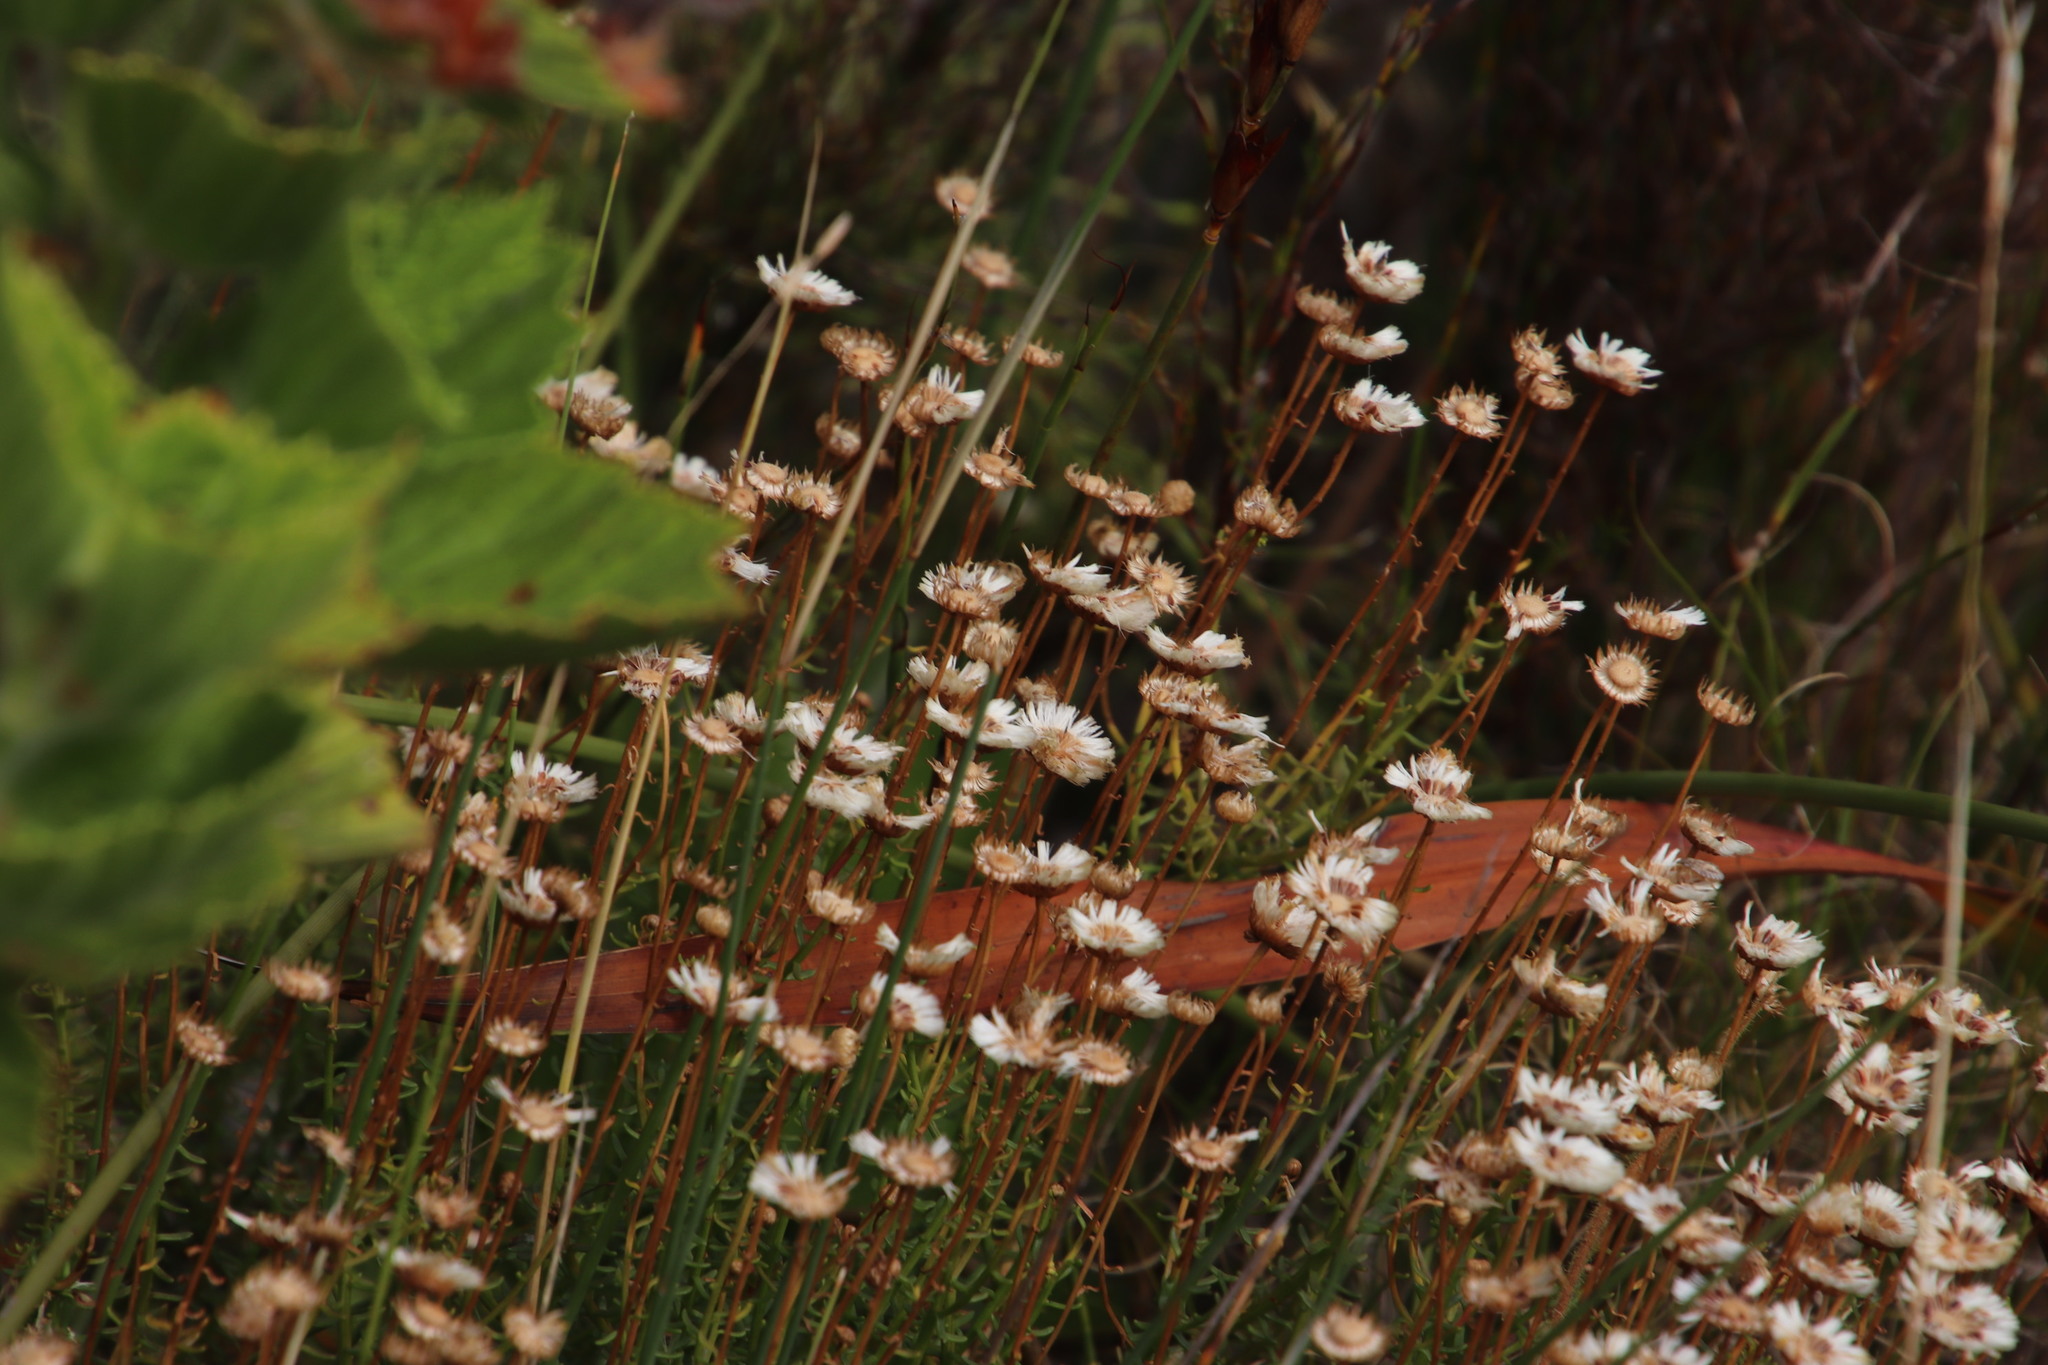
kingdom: Plantae
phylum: Tracheophyta
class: Magnoliopsida
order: Asterales
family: Asteraceae
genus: Chrysocoma
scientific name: Chrysocoma cernua
